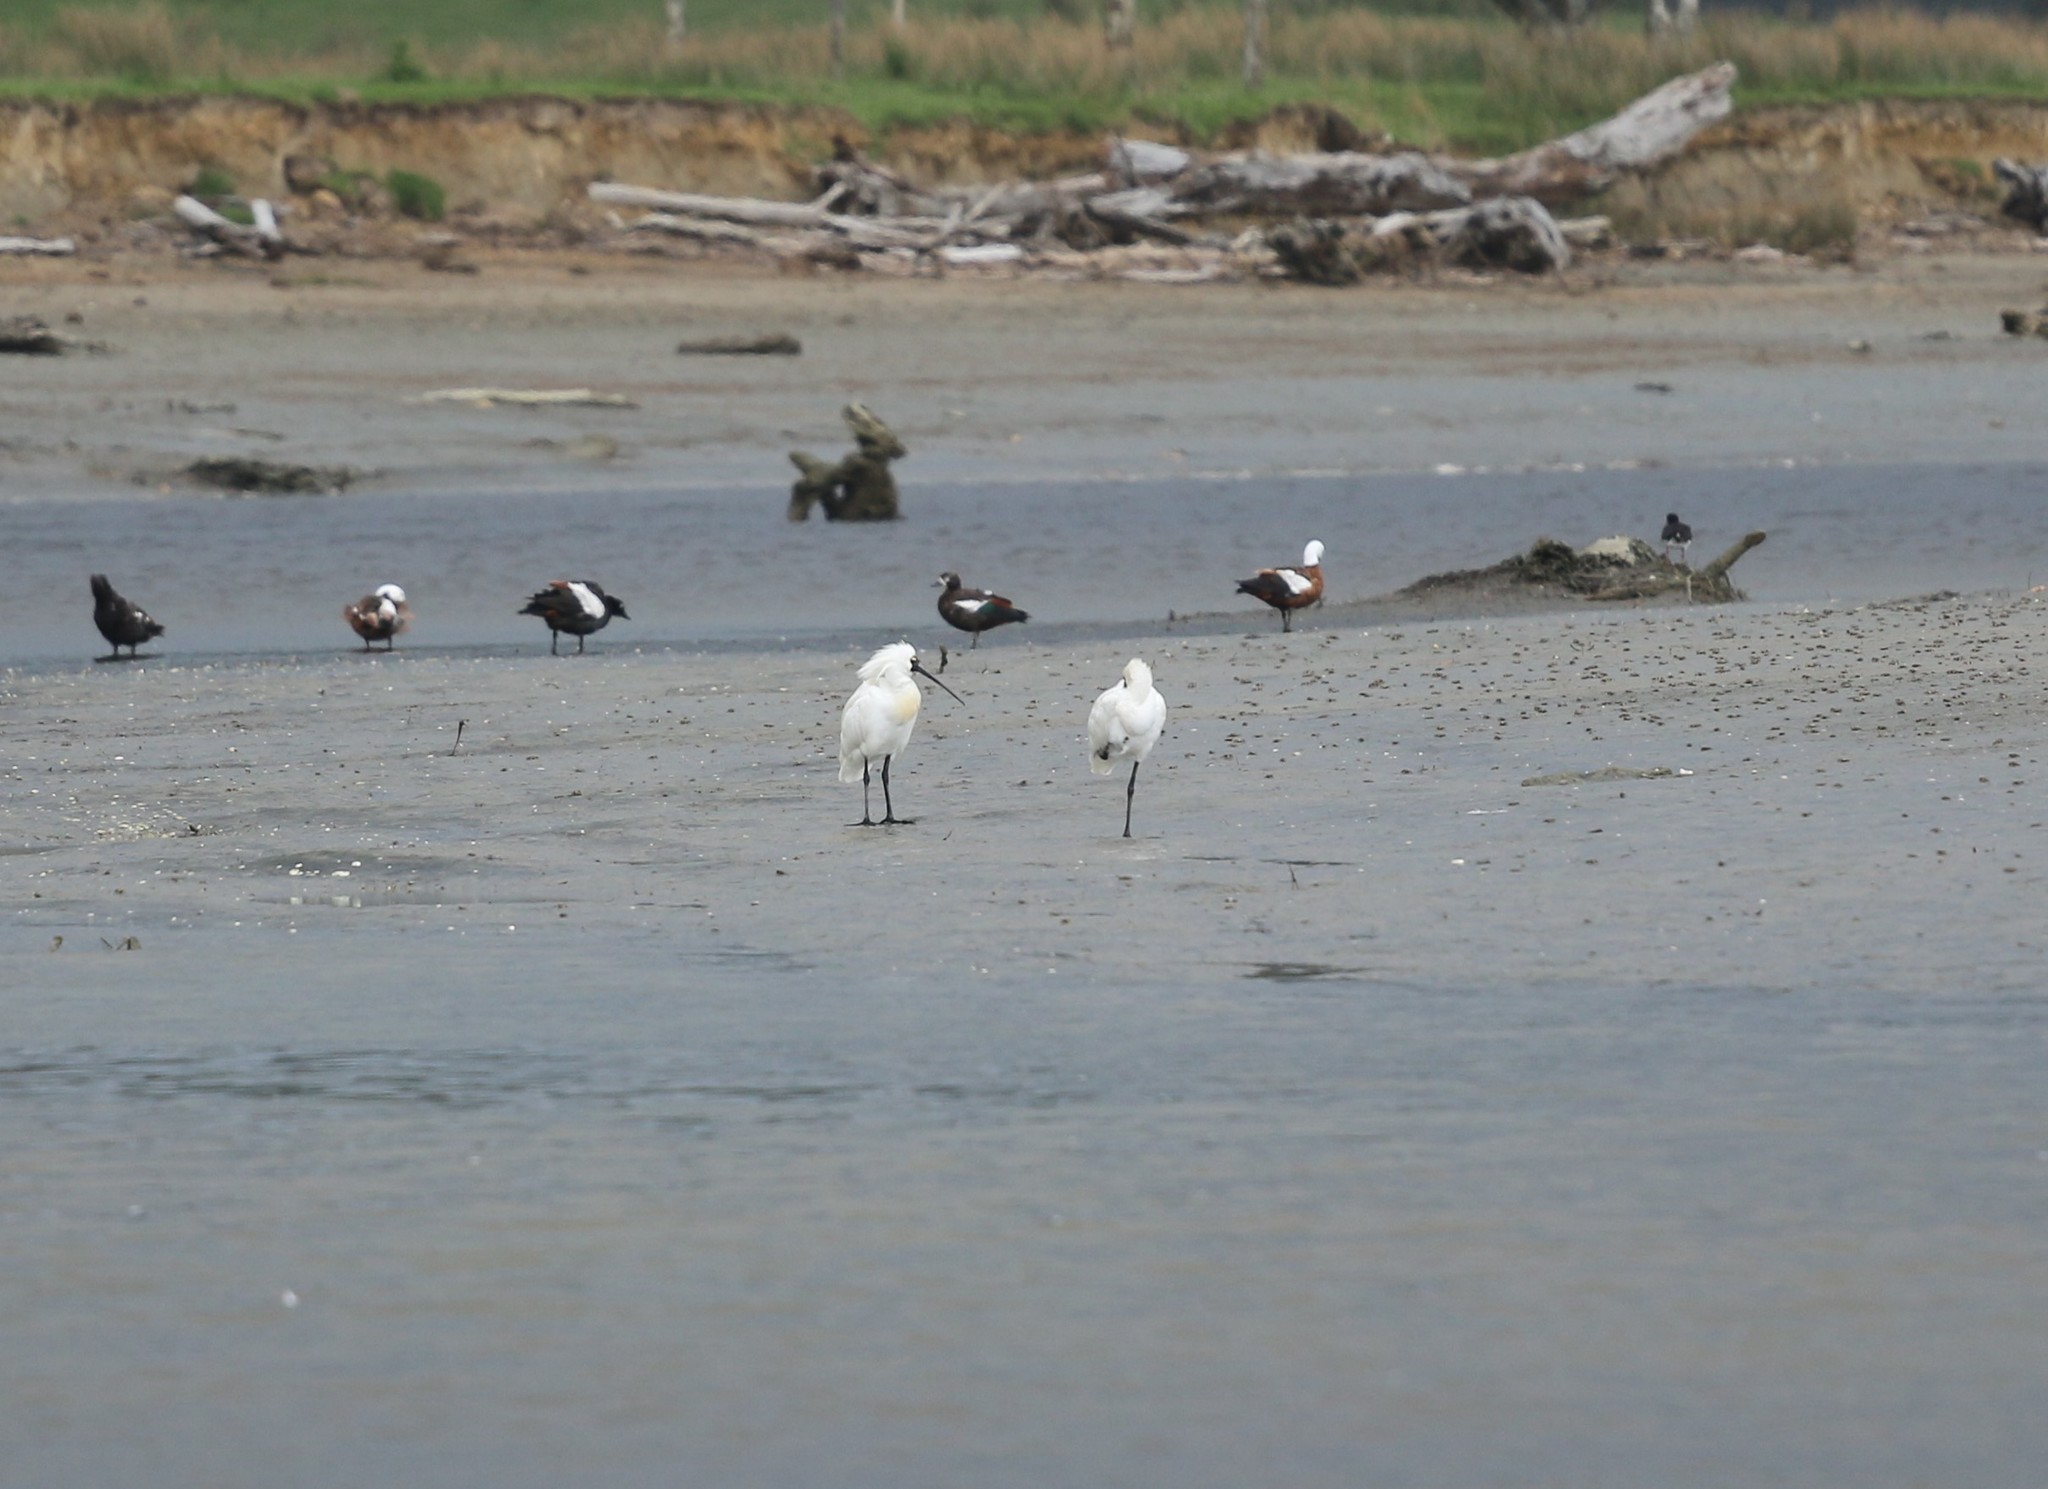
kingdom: Animalia
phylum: Chordata
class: Aves
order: Pelecaniformes
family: Threskiornithidae
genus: Platalea
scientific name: Platalea regia
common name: Royal spoonbill
